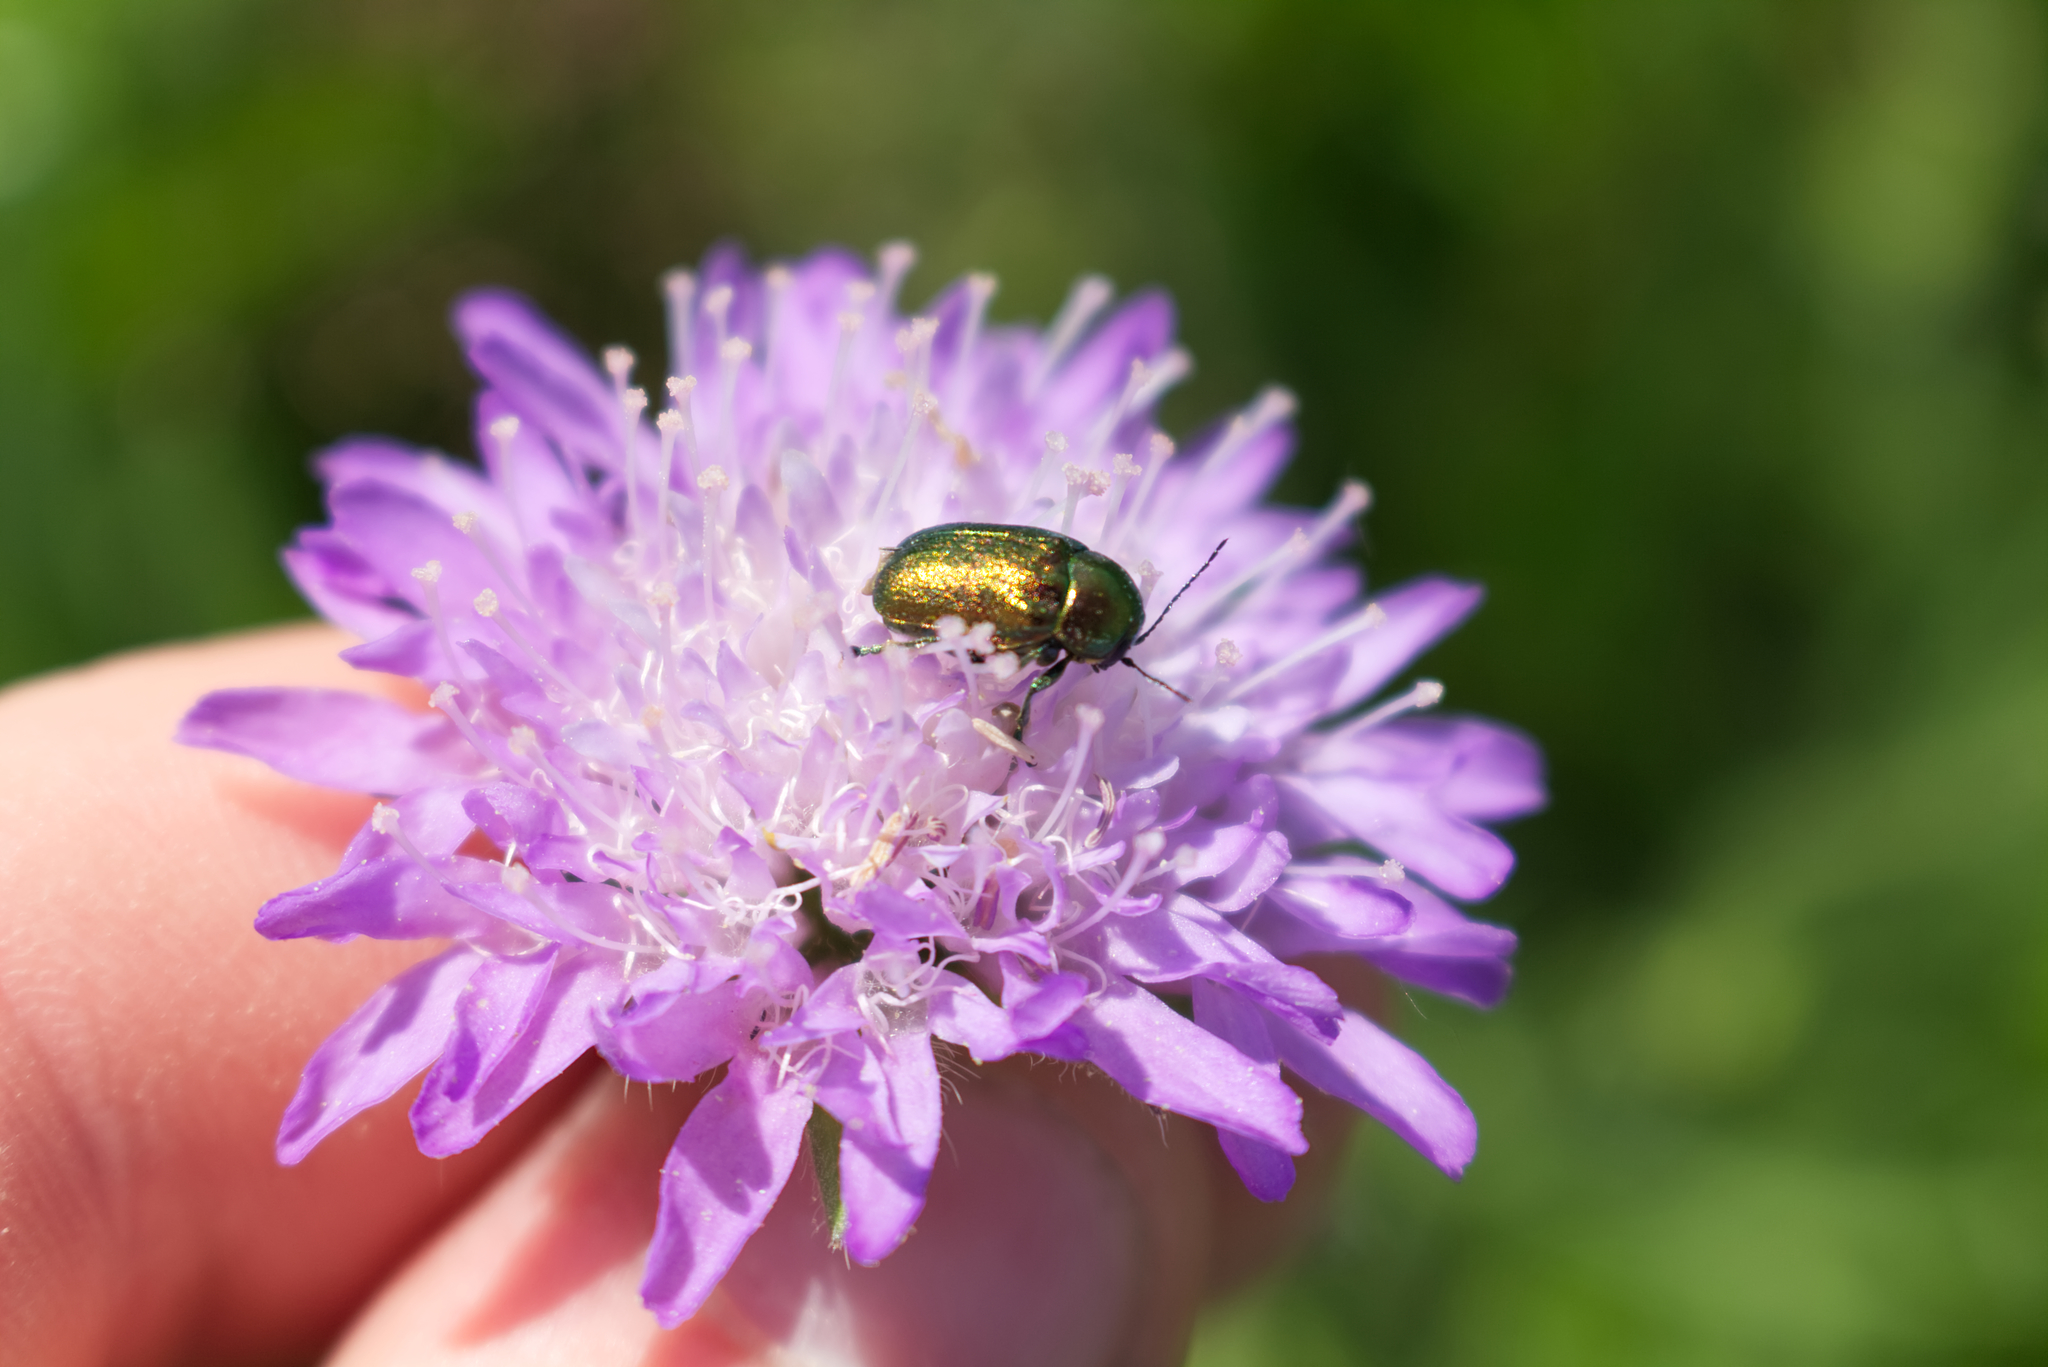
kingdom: Animalia
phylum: Arthropoda
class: Insecta
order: Coleoptera
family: Chrysomelidae
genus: Cryptocephalus
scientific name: Cryptocephalus
